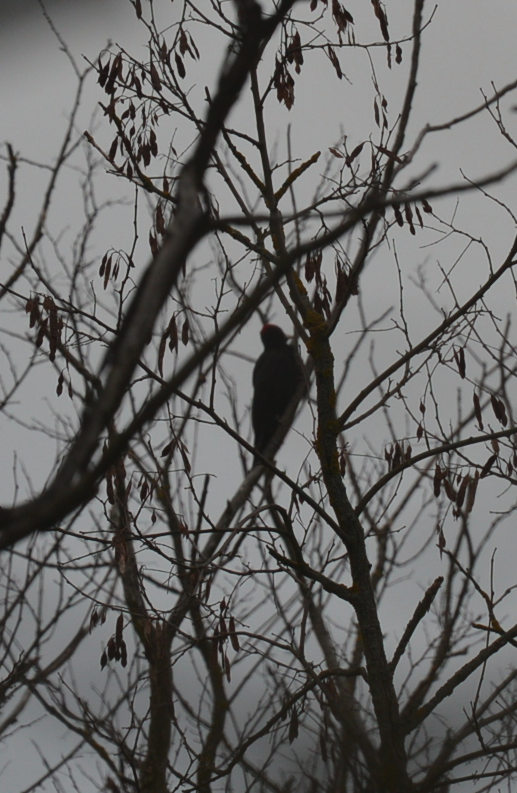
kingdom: Animalia
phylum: Chordata
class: Aves
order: Piciformes
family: Picidae
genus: Dryocopus
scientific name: Dryocopus martius
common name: Black woodpecker
